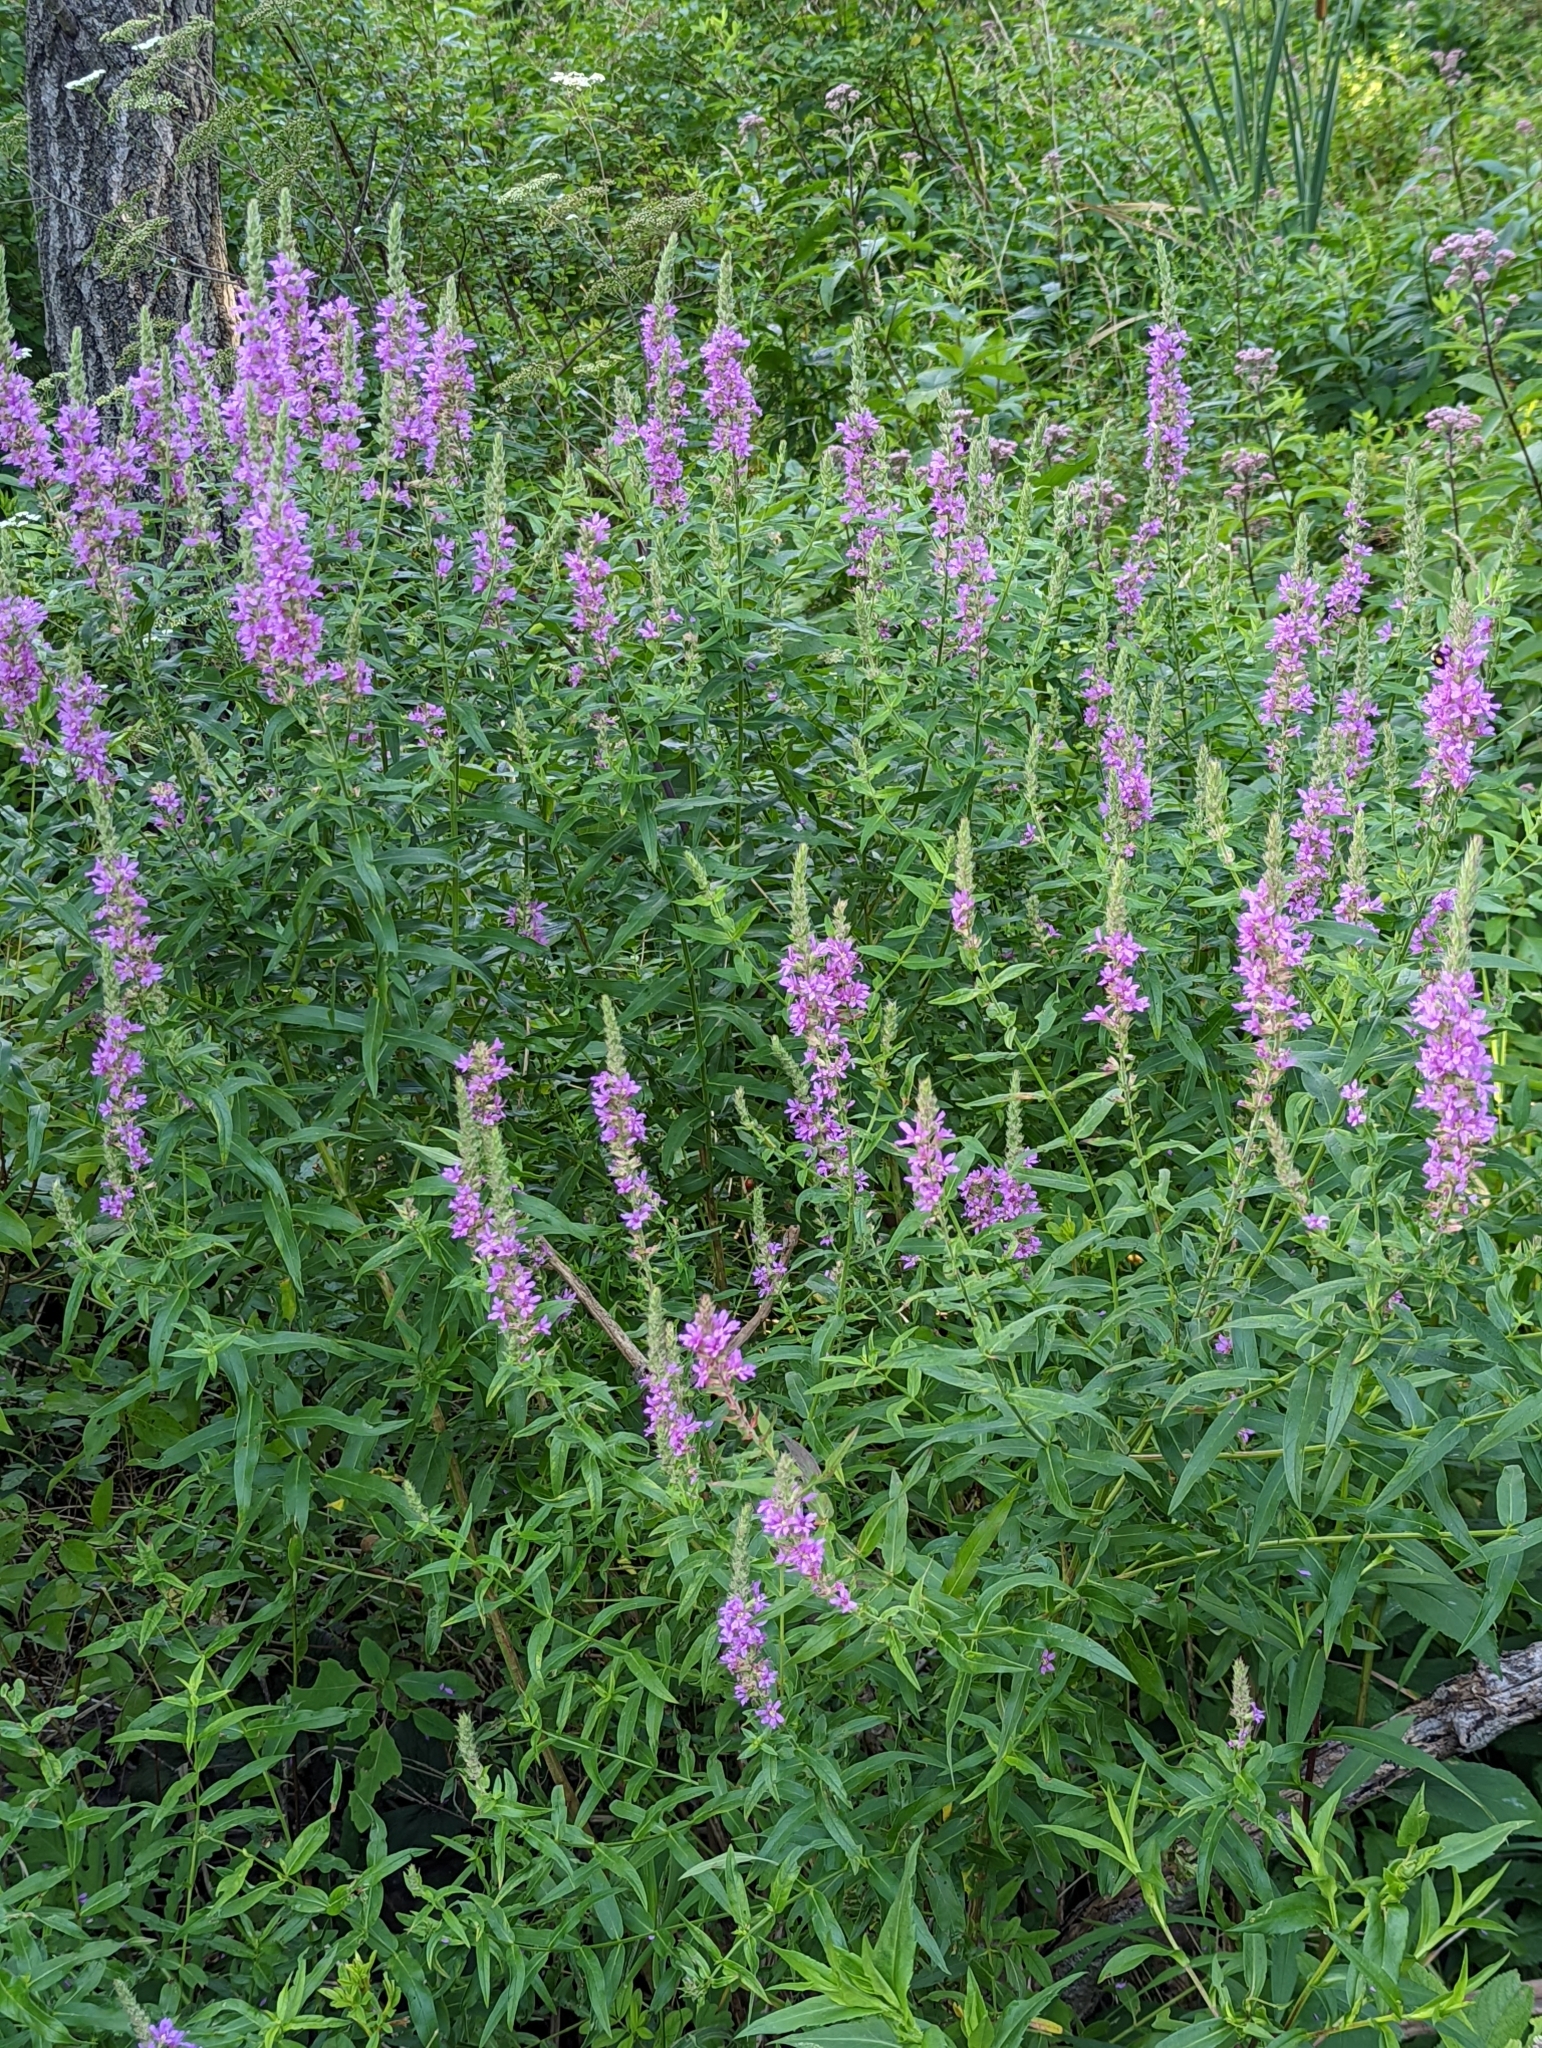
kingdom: Plantae
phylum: Tracheophyta
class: Magnoliopsida
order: Myrtales
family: Lythraceae
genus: Lythrum
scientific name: Lythrum salicaria
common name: Purple loosestrife
